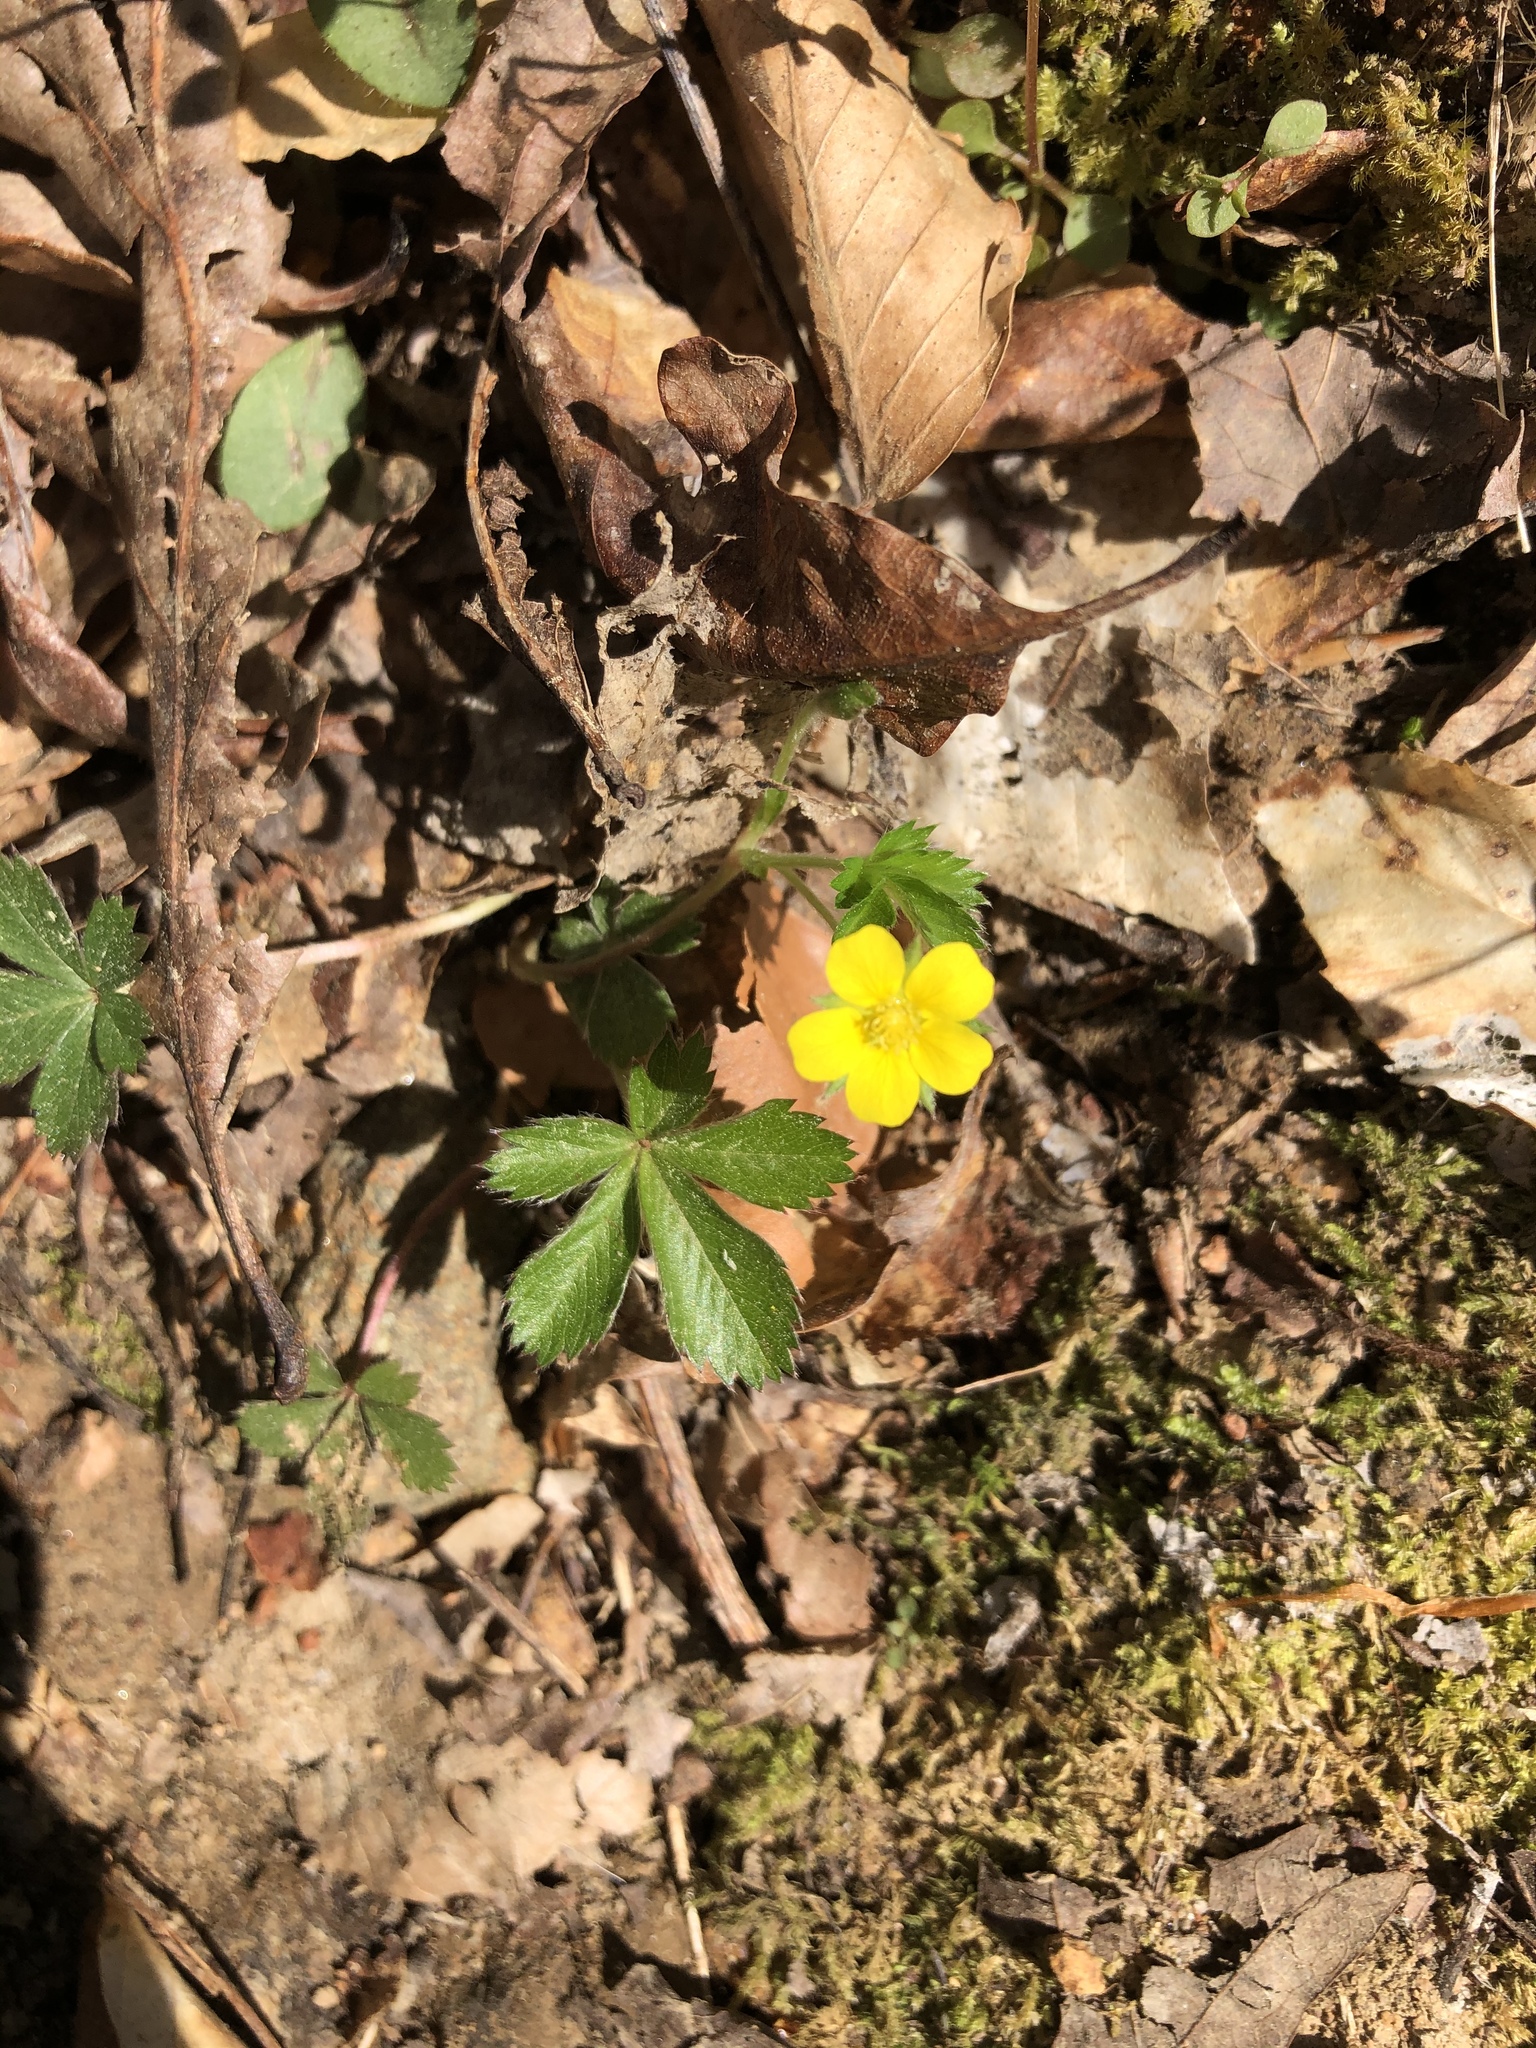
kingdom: Plantae
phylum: Tracheophyta
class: Magnoliopsida
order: Rosales
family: Rosaceae
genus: Potentilla
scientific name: Potentilla canadensis
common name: Canada cinquefoil
